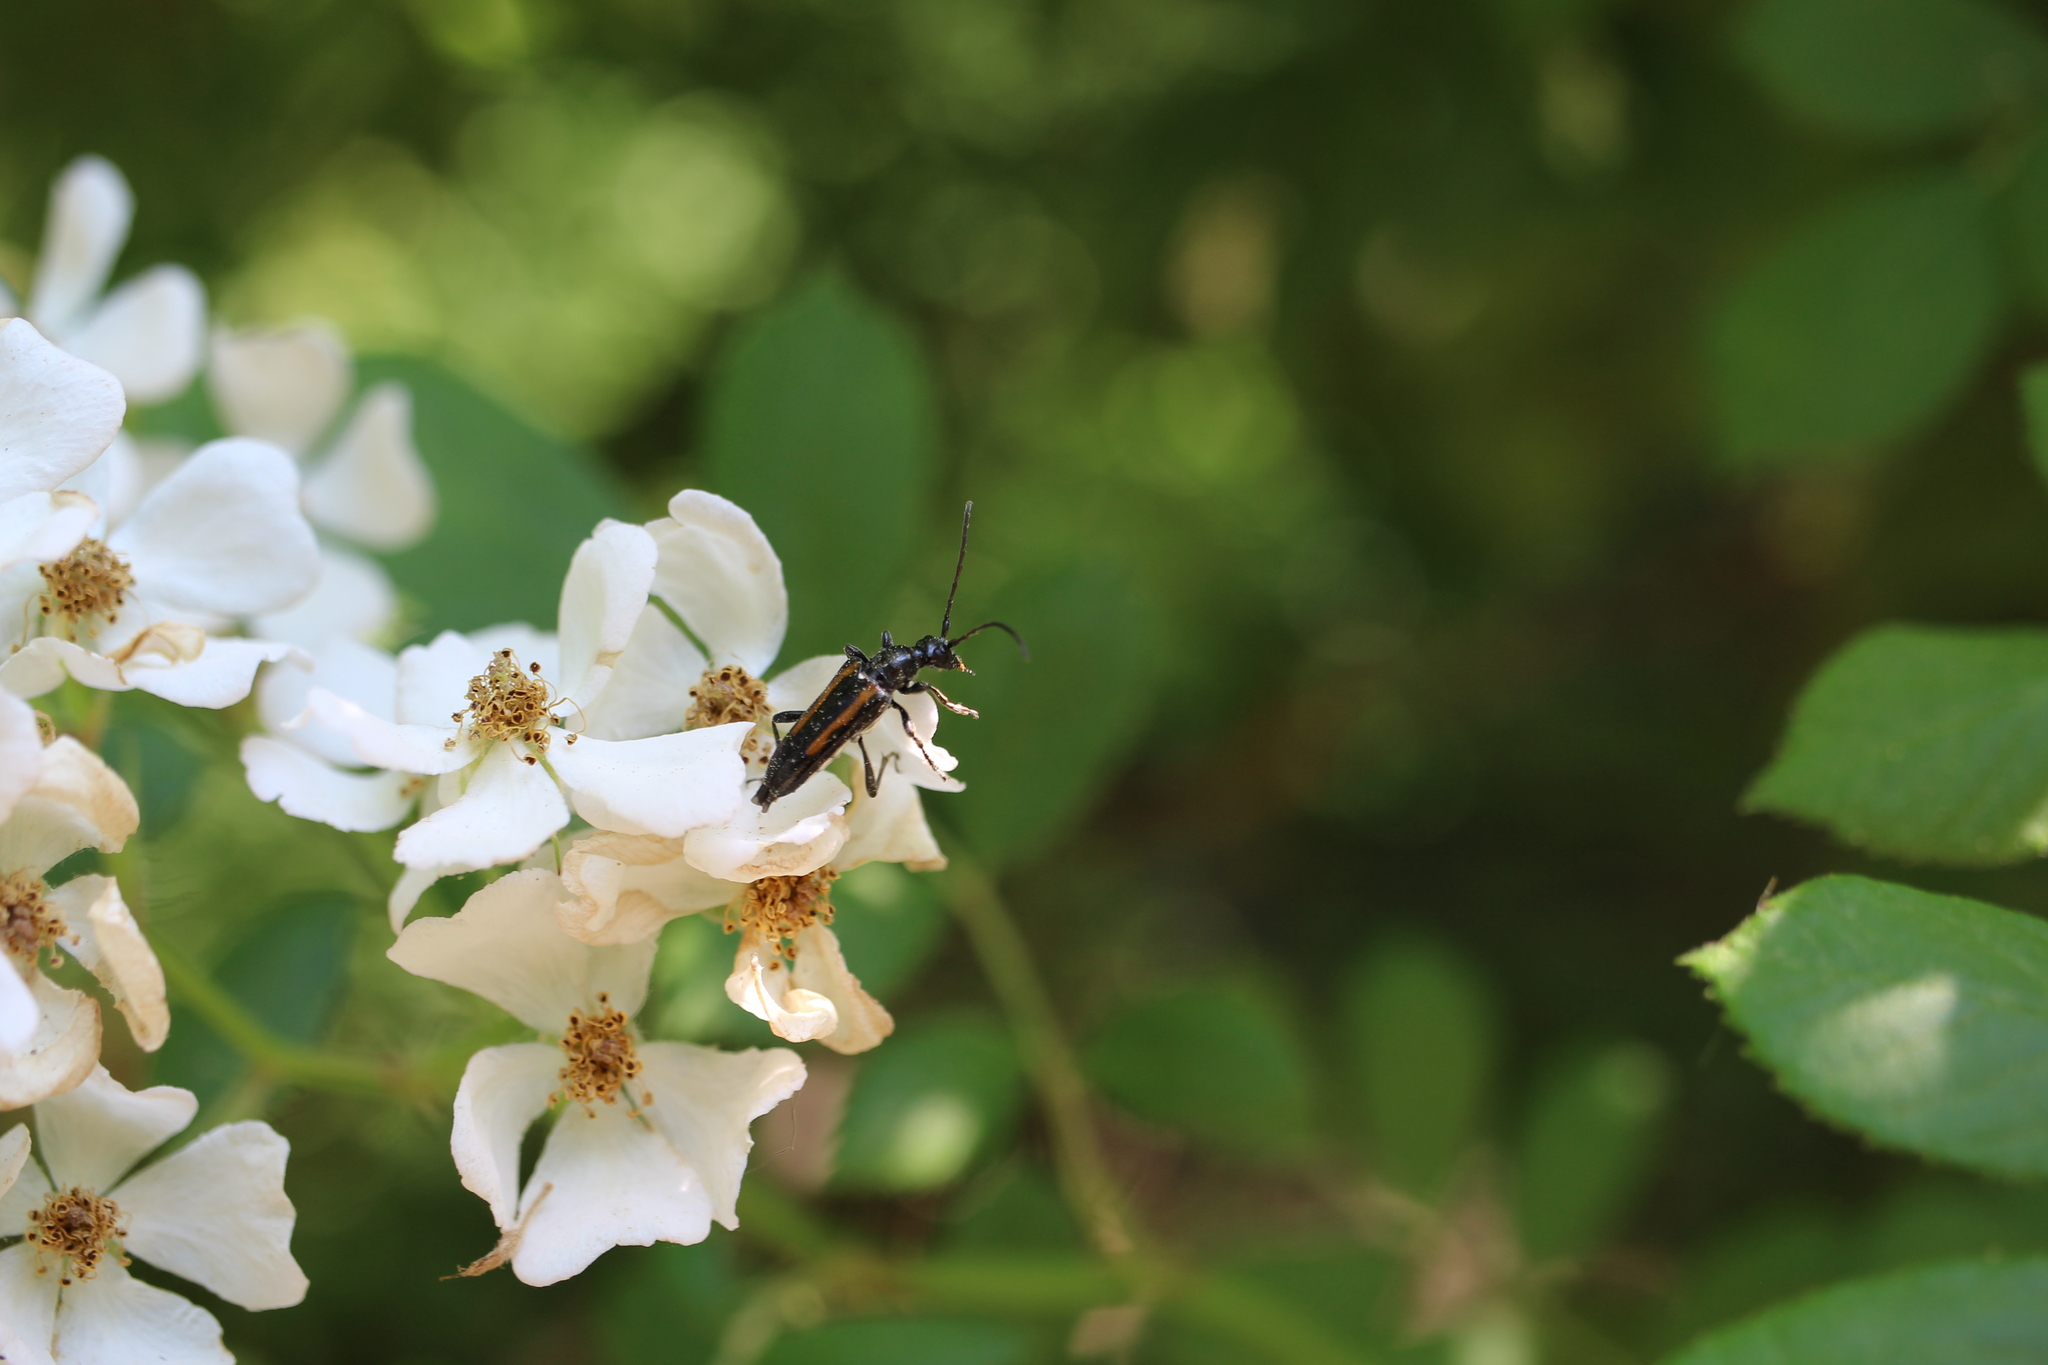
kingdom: Animalia
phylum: Arthropoda
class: Insecta
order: Coleoptera
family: Cerambycidae
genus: Strangalepta
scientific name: Strangalepta abbreviata
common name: Strangalepta flower longhorn beetle
